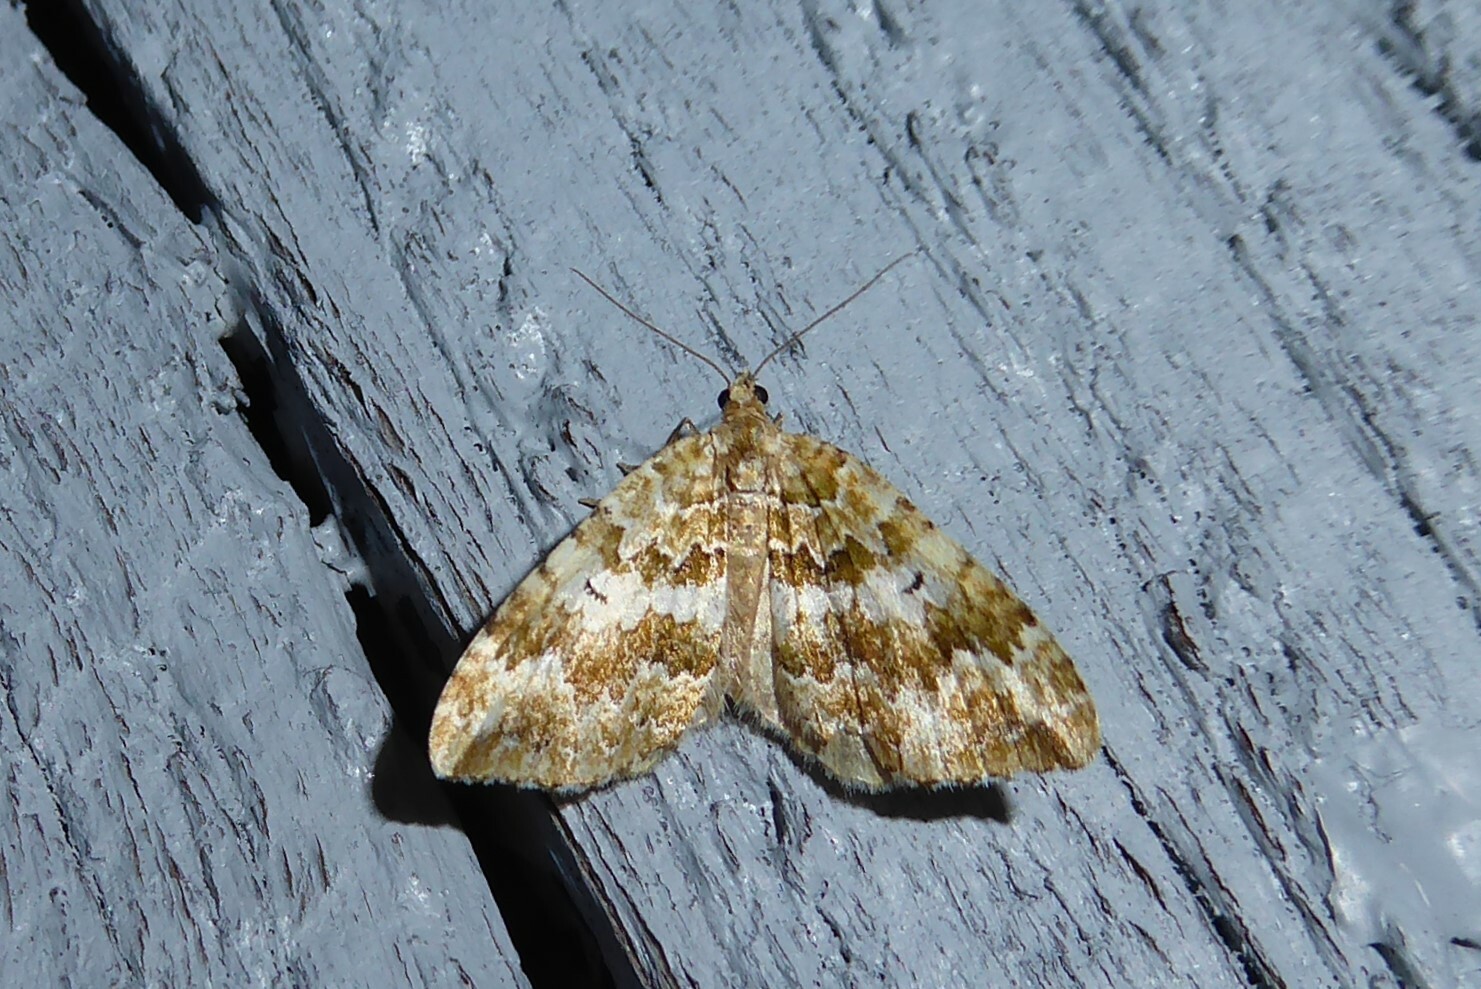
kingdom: Animalia
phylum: Arthropoda
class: Insecta
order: Lepidoptera
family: Geometridae
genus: Asaphodes
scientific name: Asaphodes beata
